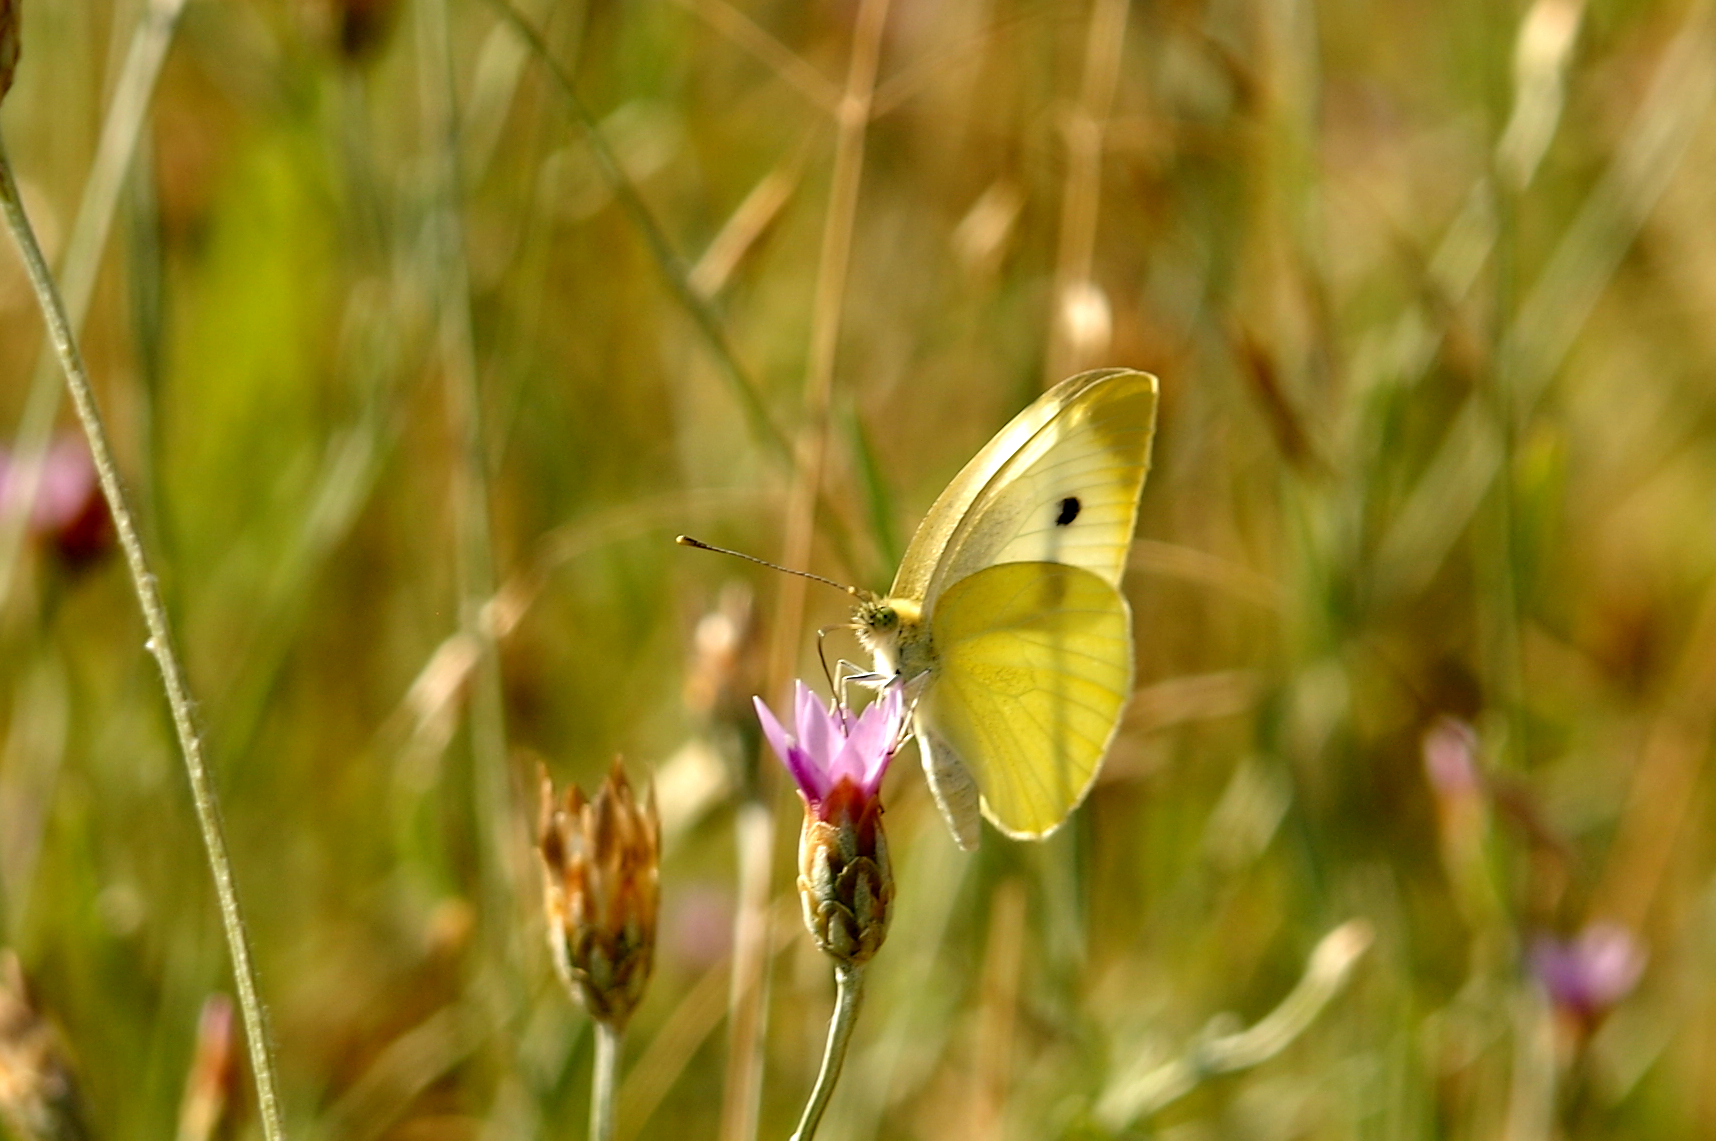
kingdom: Animalia
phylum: Arthropoda
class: Insecta
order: Lepidoptera
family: Pieridae
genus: Pieris
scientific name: Pieris rapae
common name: Small white
